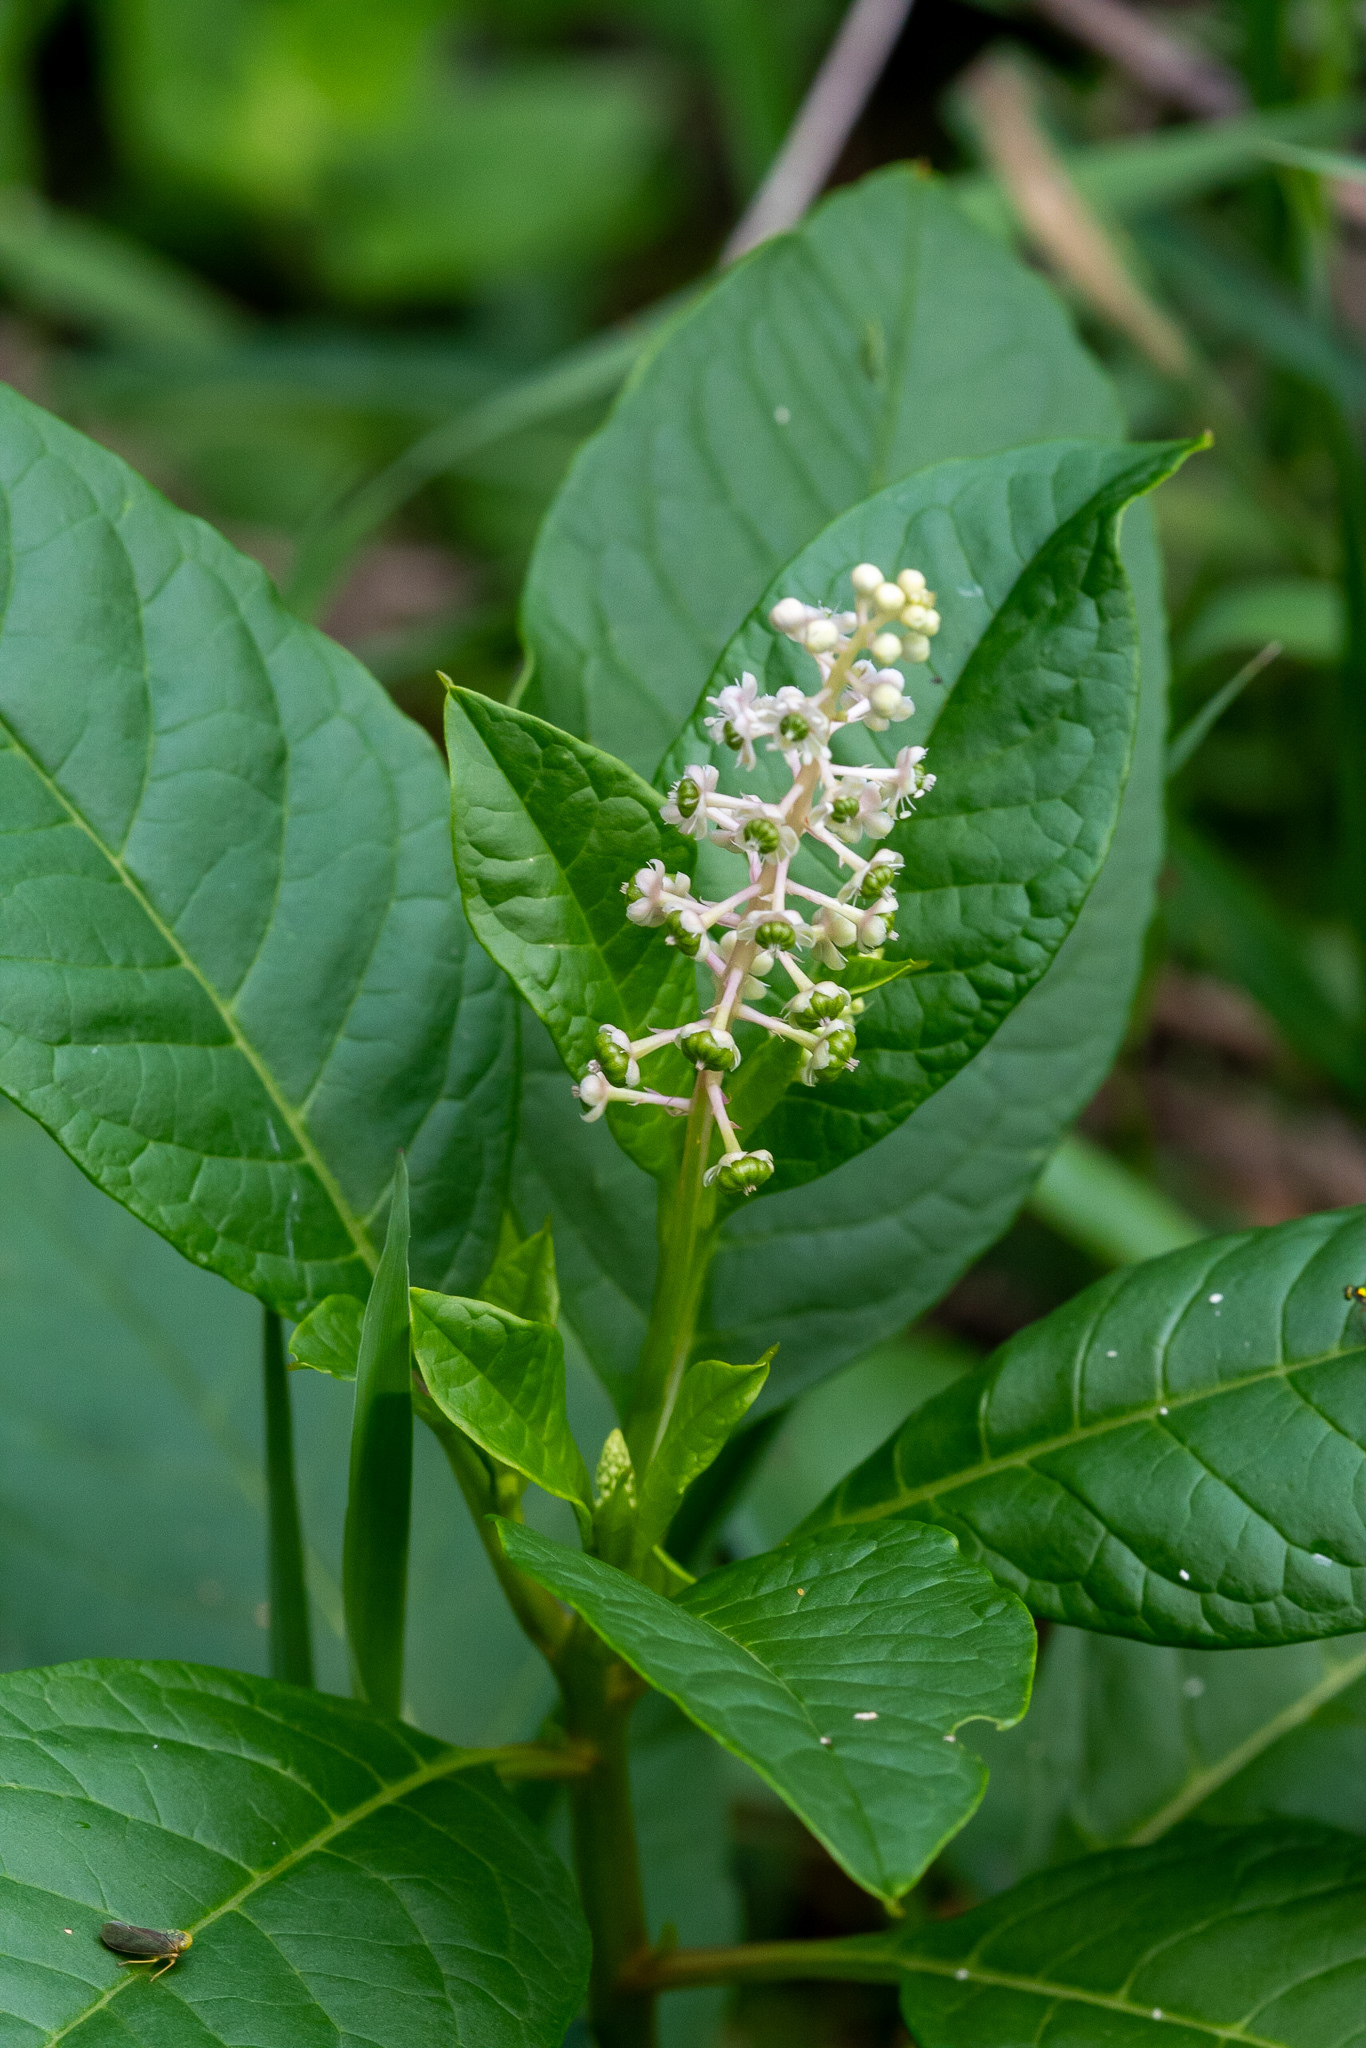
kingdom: Plantae
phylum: Tracheophyta
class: Magnoliopsida
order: Caryophyllales
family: Phytolaccaceae
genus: Phytolacca
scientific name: Phytolacca americana
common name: American pokeweed
